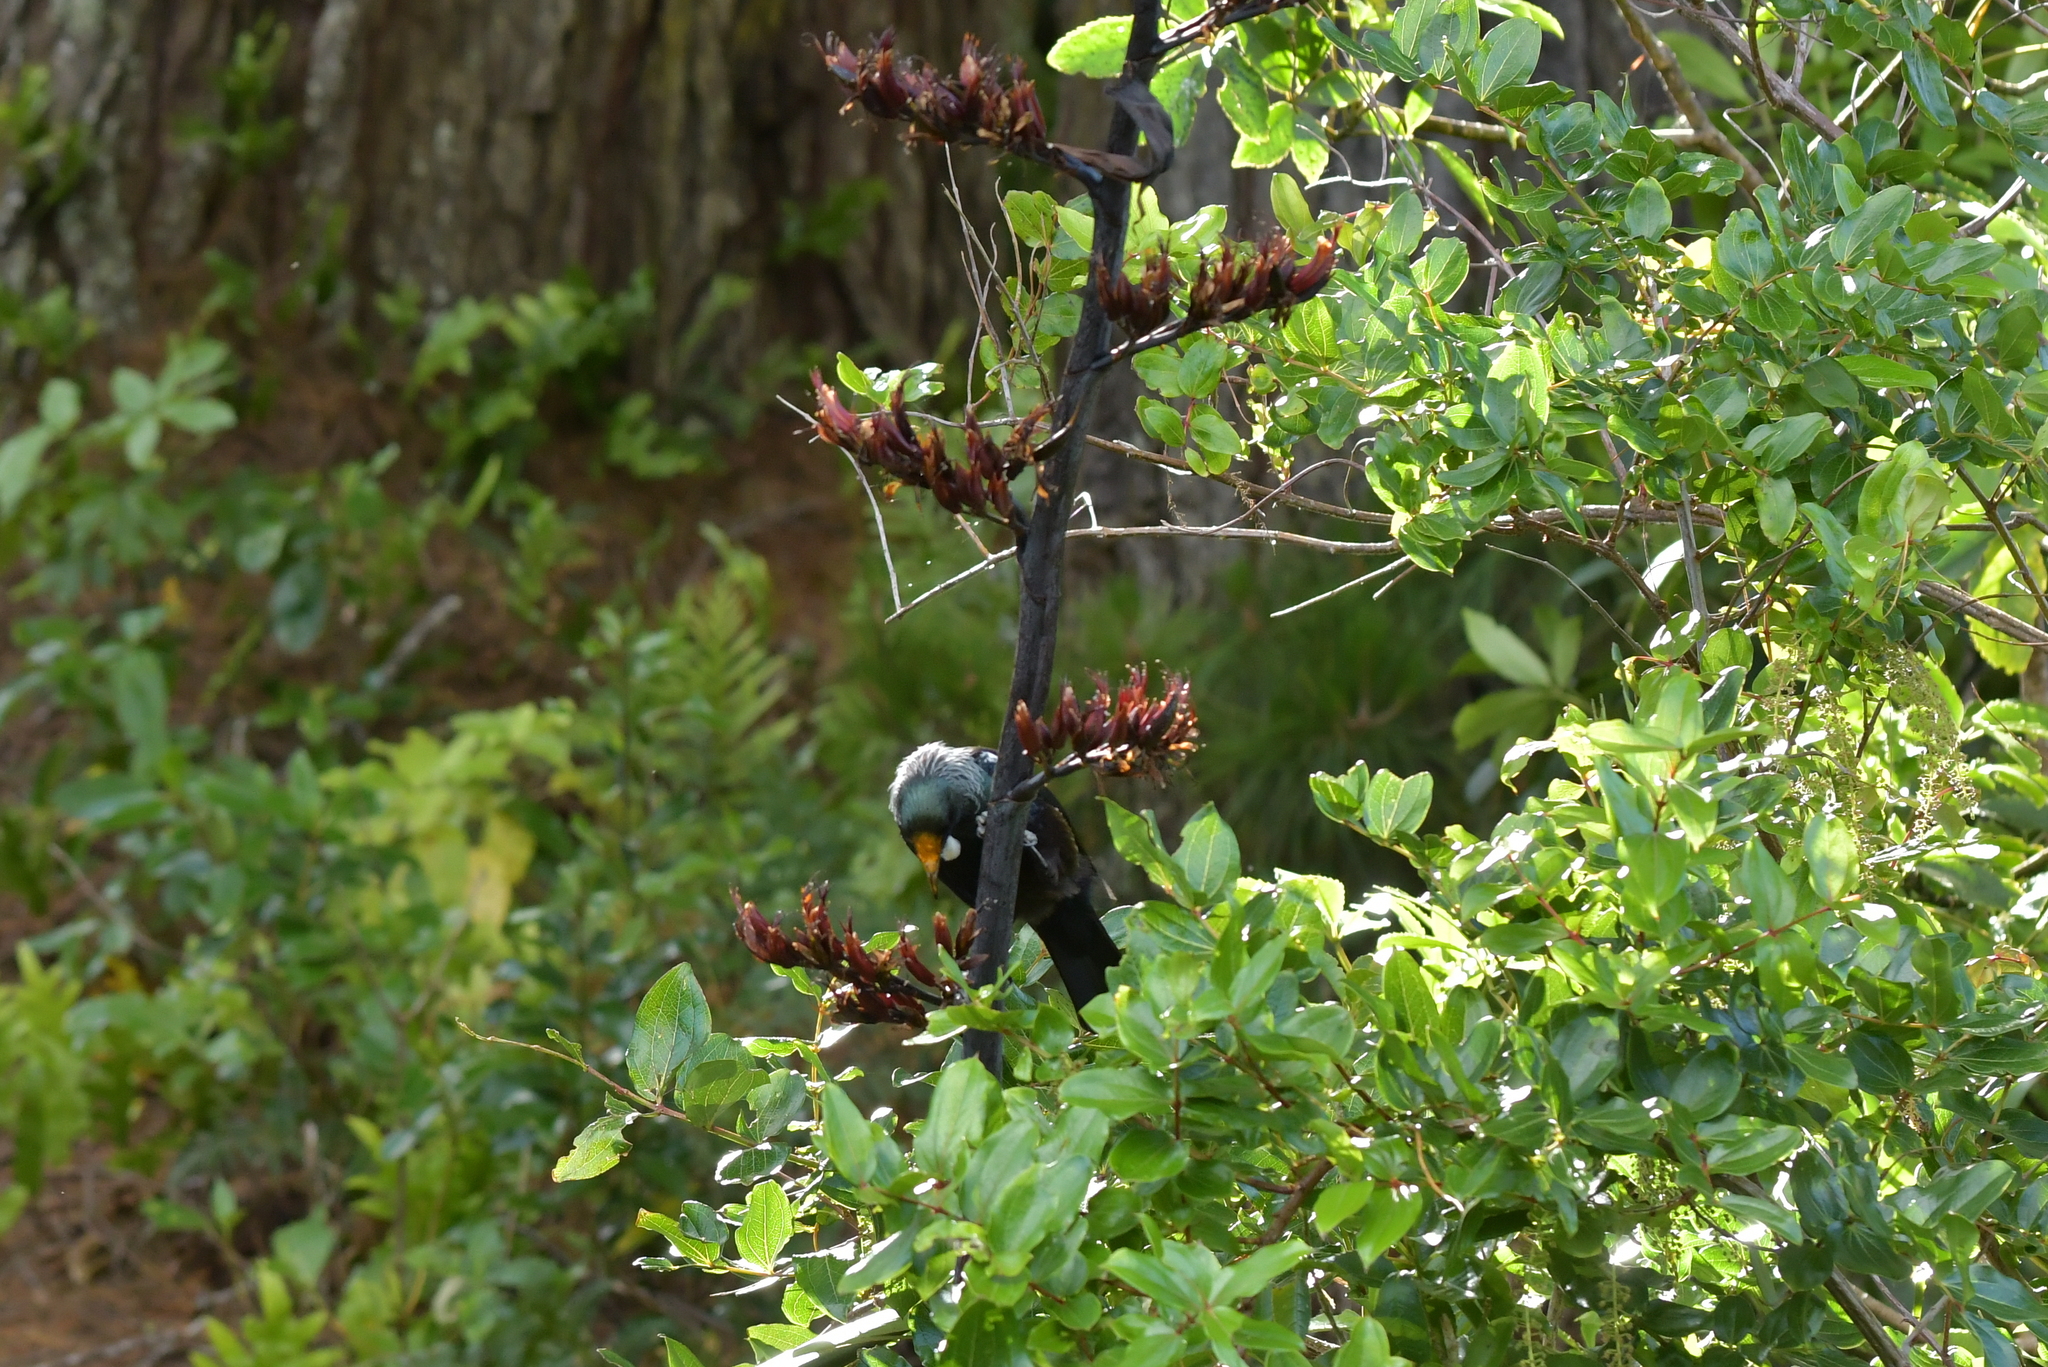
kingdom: Animalia
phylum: Chordata
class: Aves
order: Passeriformes
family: Meliphagidae
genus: Prosthemadera
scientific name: Prosthemadera novaeseelandiae
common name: Tui
